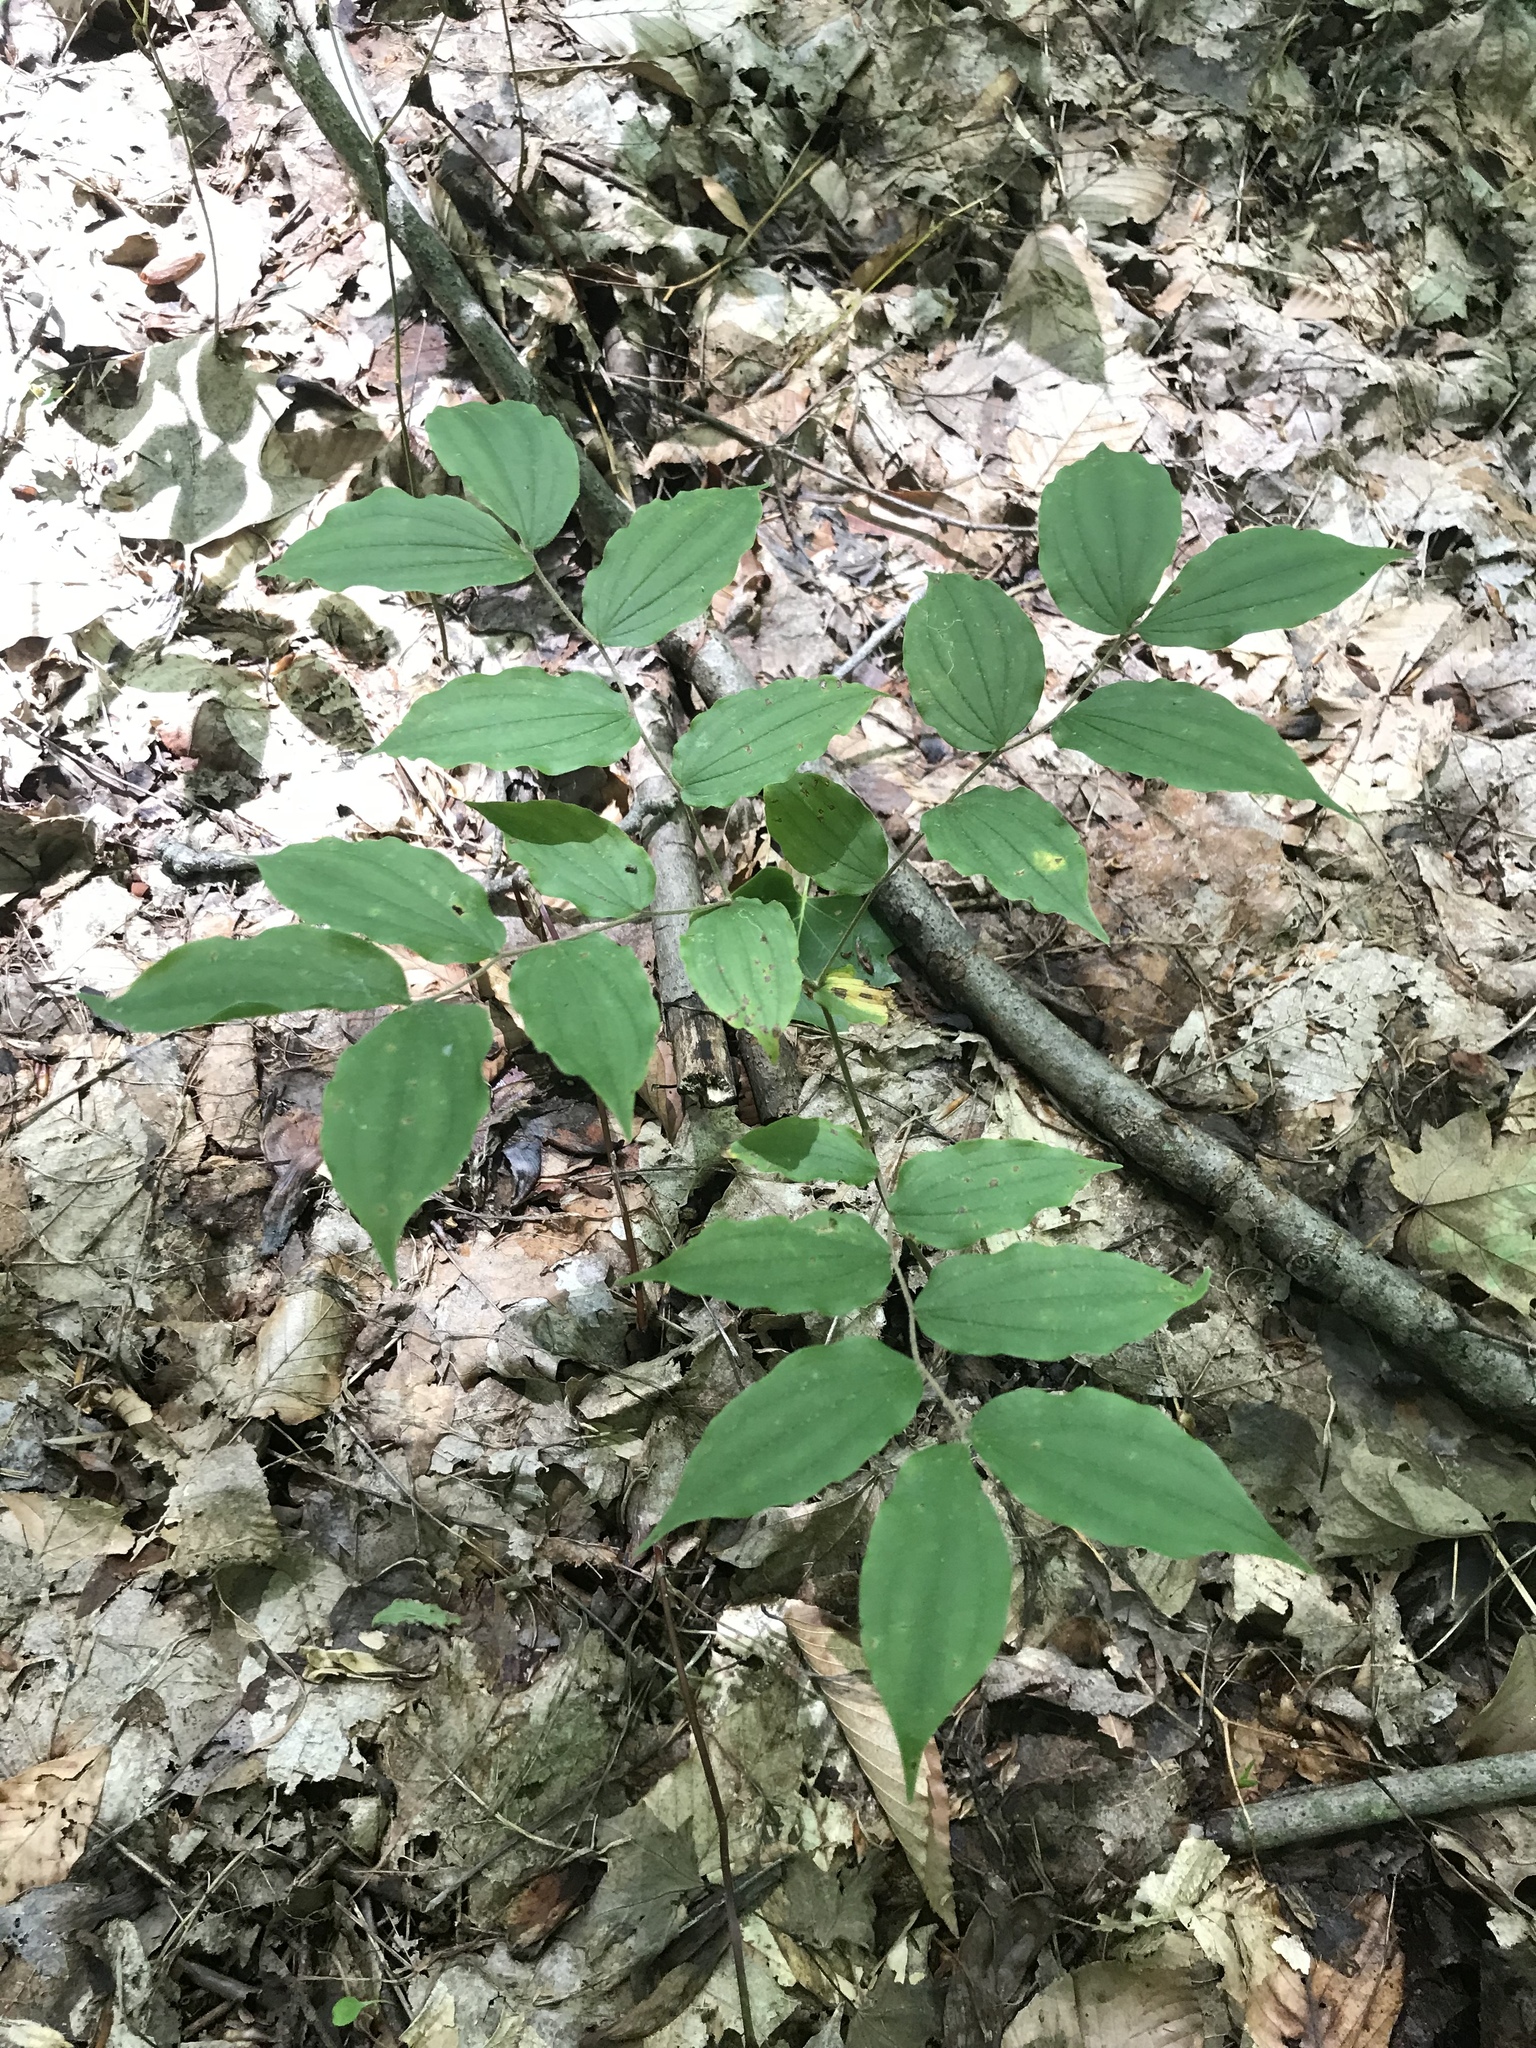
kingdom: Plantae
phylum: Tracheophyta
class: Liliopsida
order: Liliales
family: Liliaceae
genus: Prosartes
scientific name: Prosartes lanuginosa
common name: Hairy mandarin
